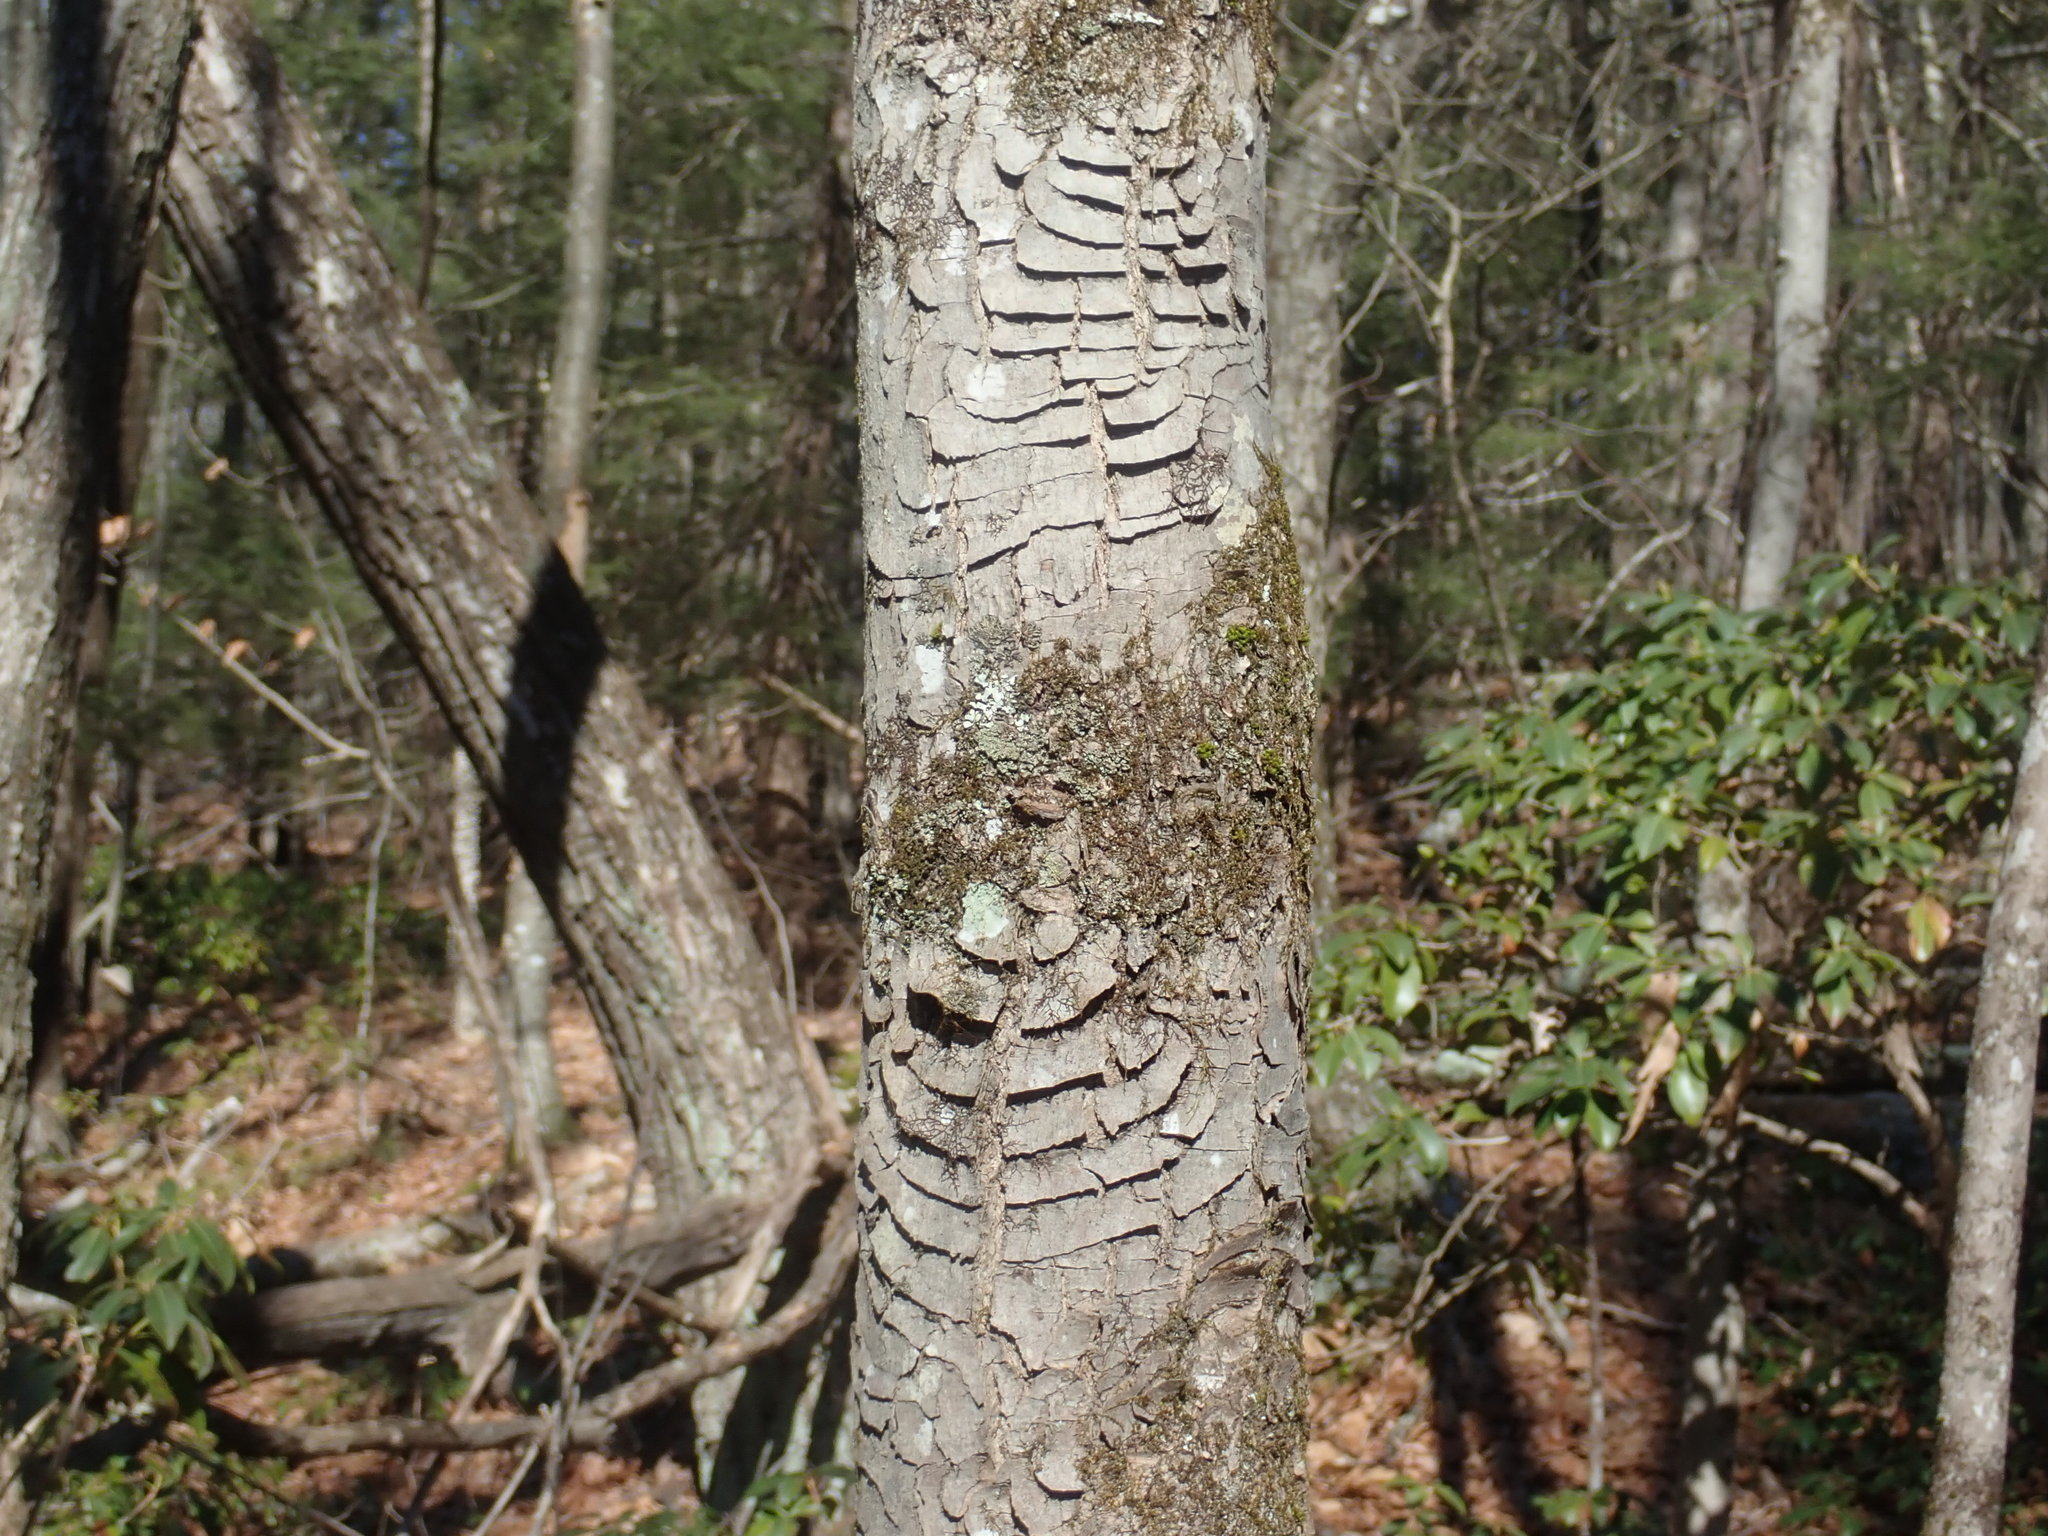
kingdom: Plantae
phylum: Tracheophyta
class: Magnoliopsida
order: Sapindales
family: Sapindaceae
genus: Acer
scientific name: Acer rubrum
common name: Red maple
